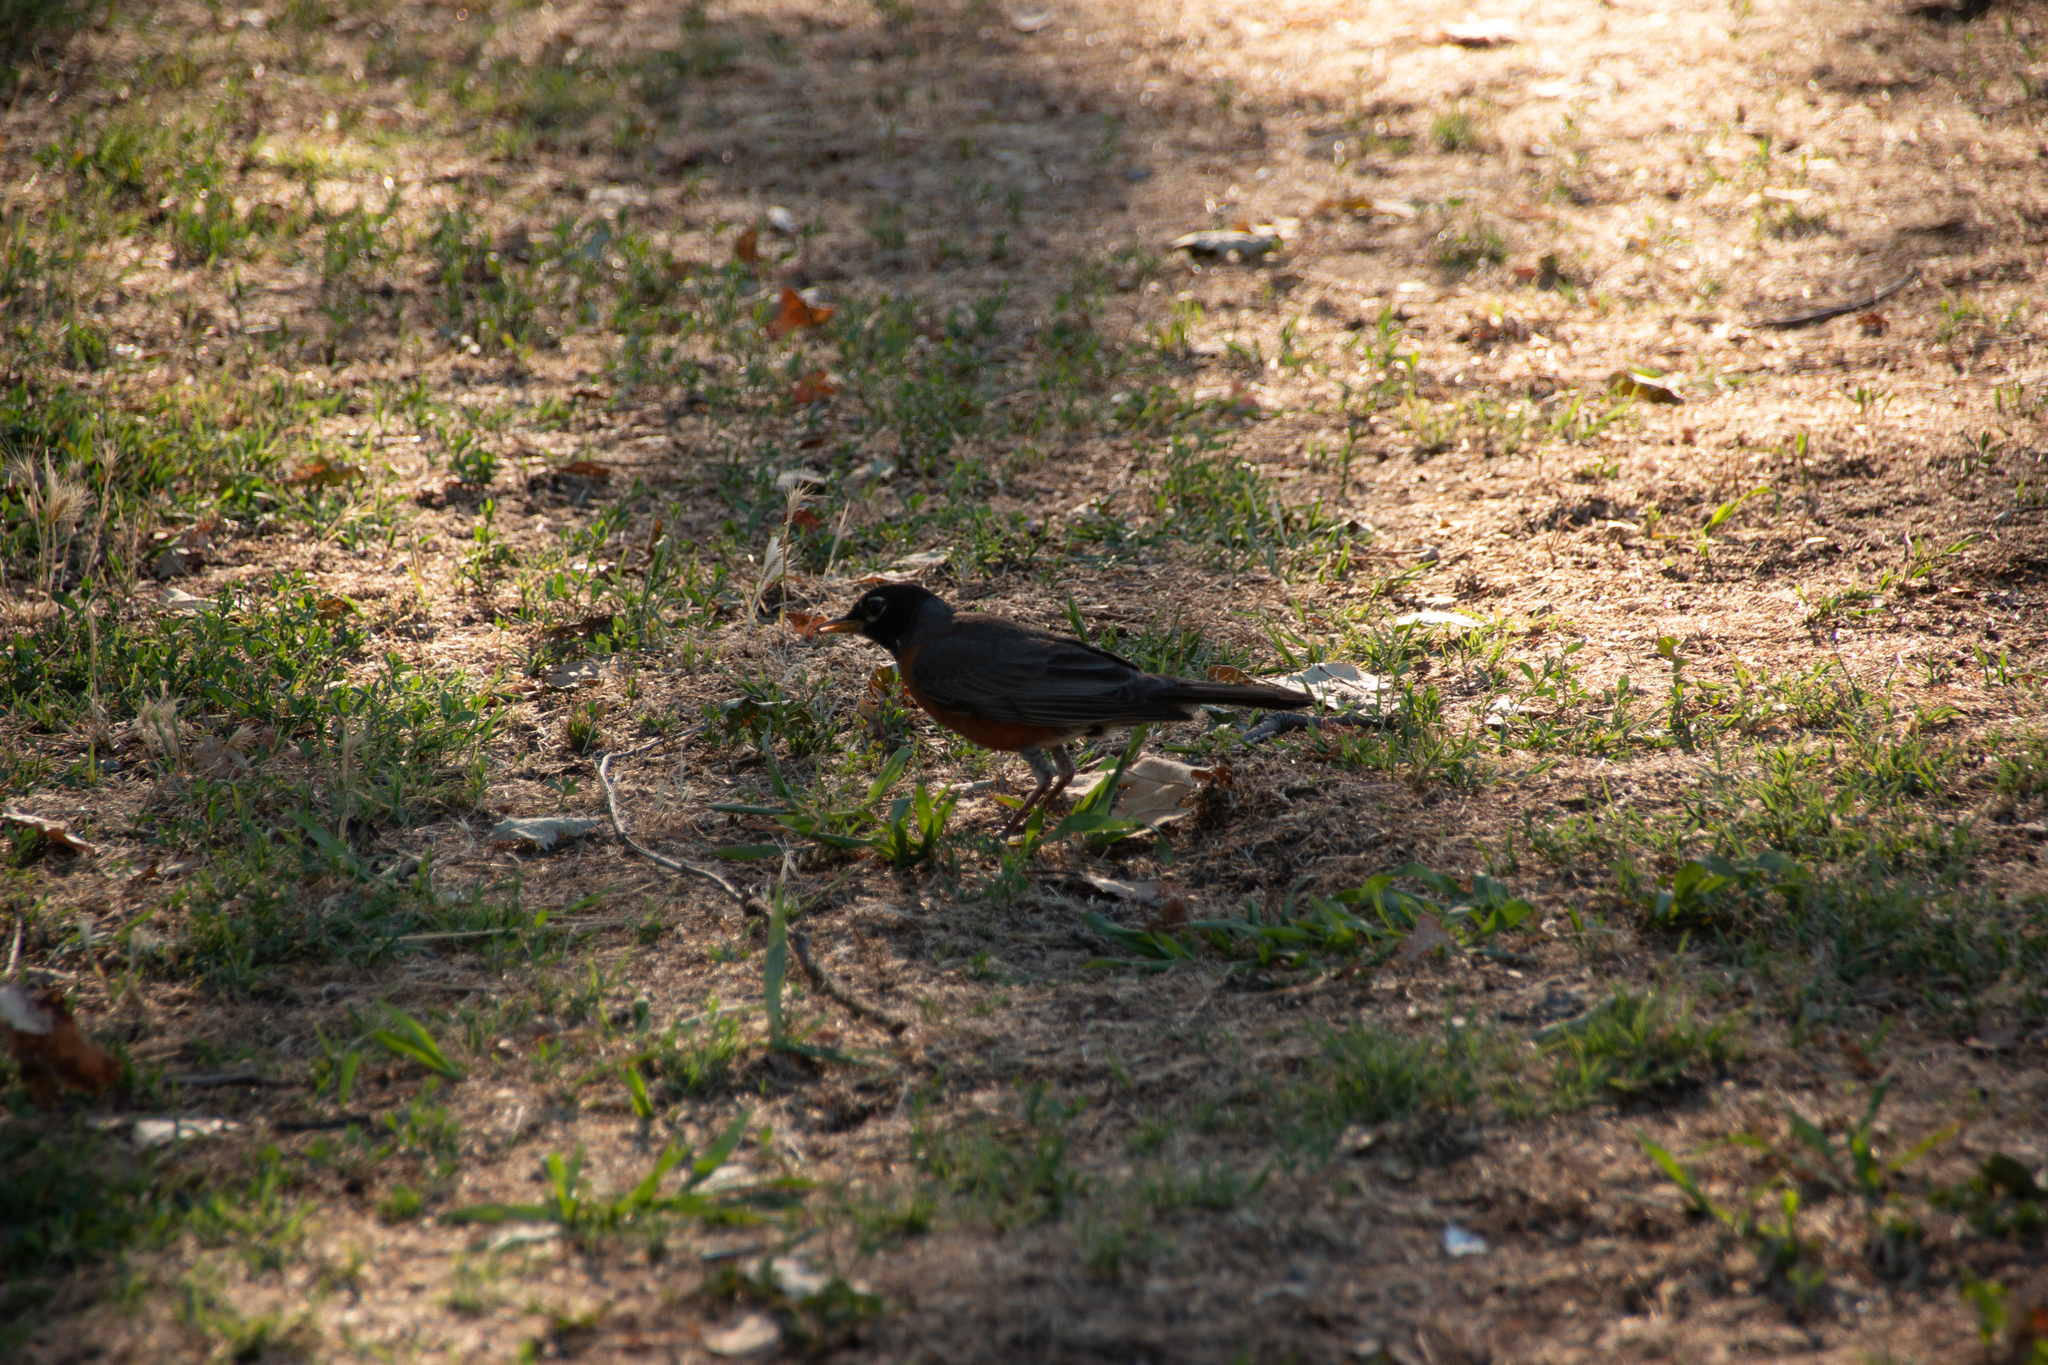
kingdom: Animalia
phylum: Chordata
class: Aves
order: Passeriformes
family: Turdidae
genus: Turdus
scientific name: Turdus migratorius
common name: American robin
